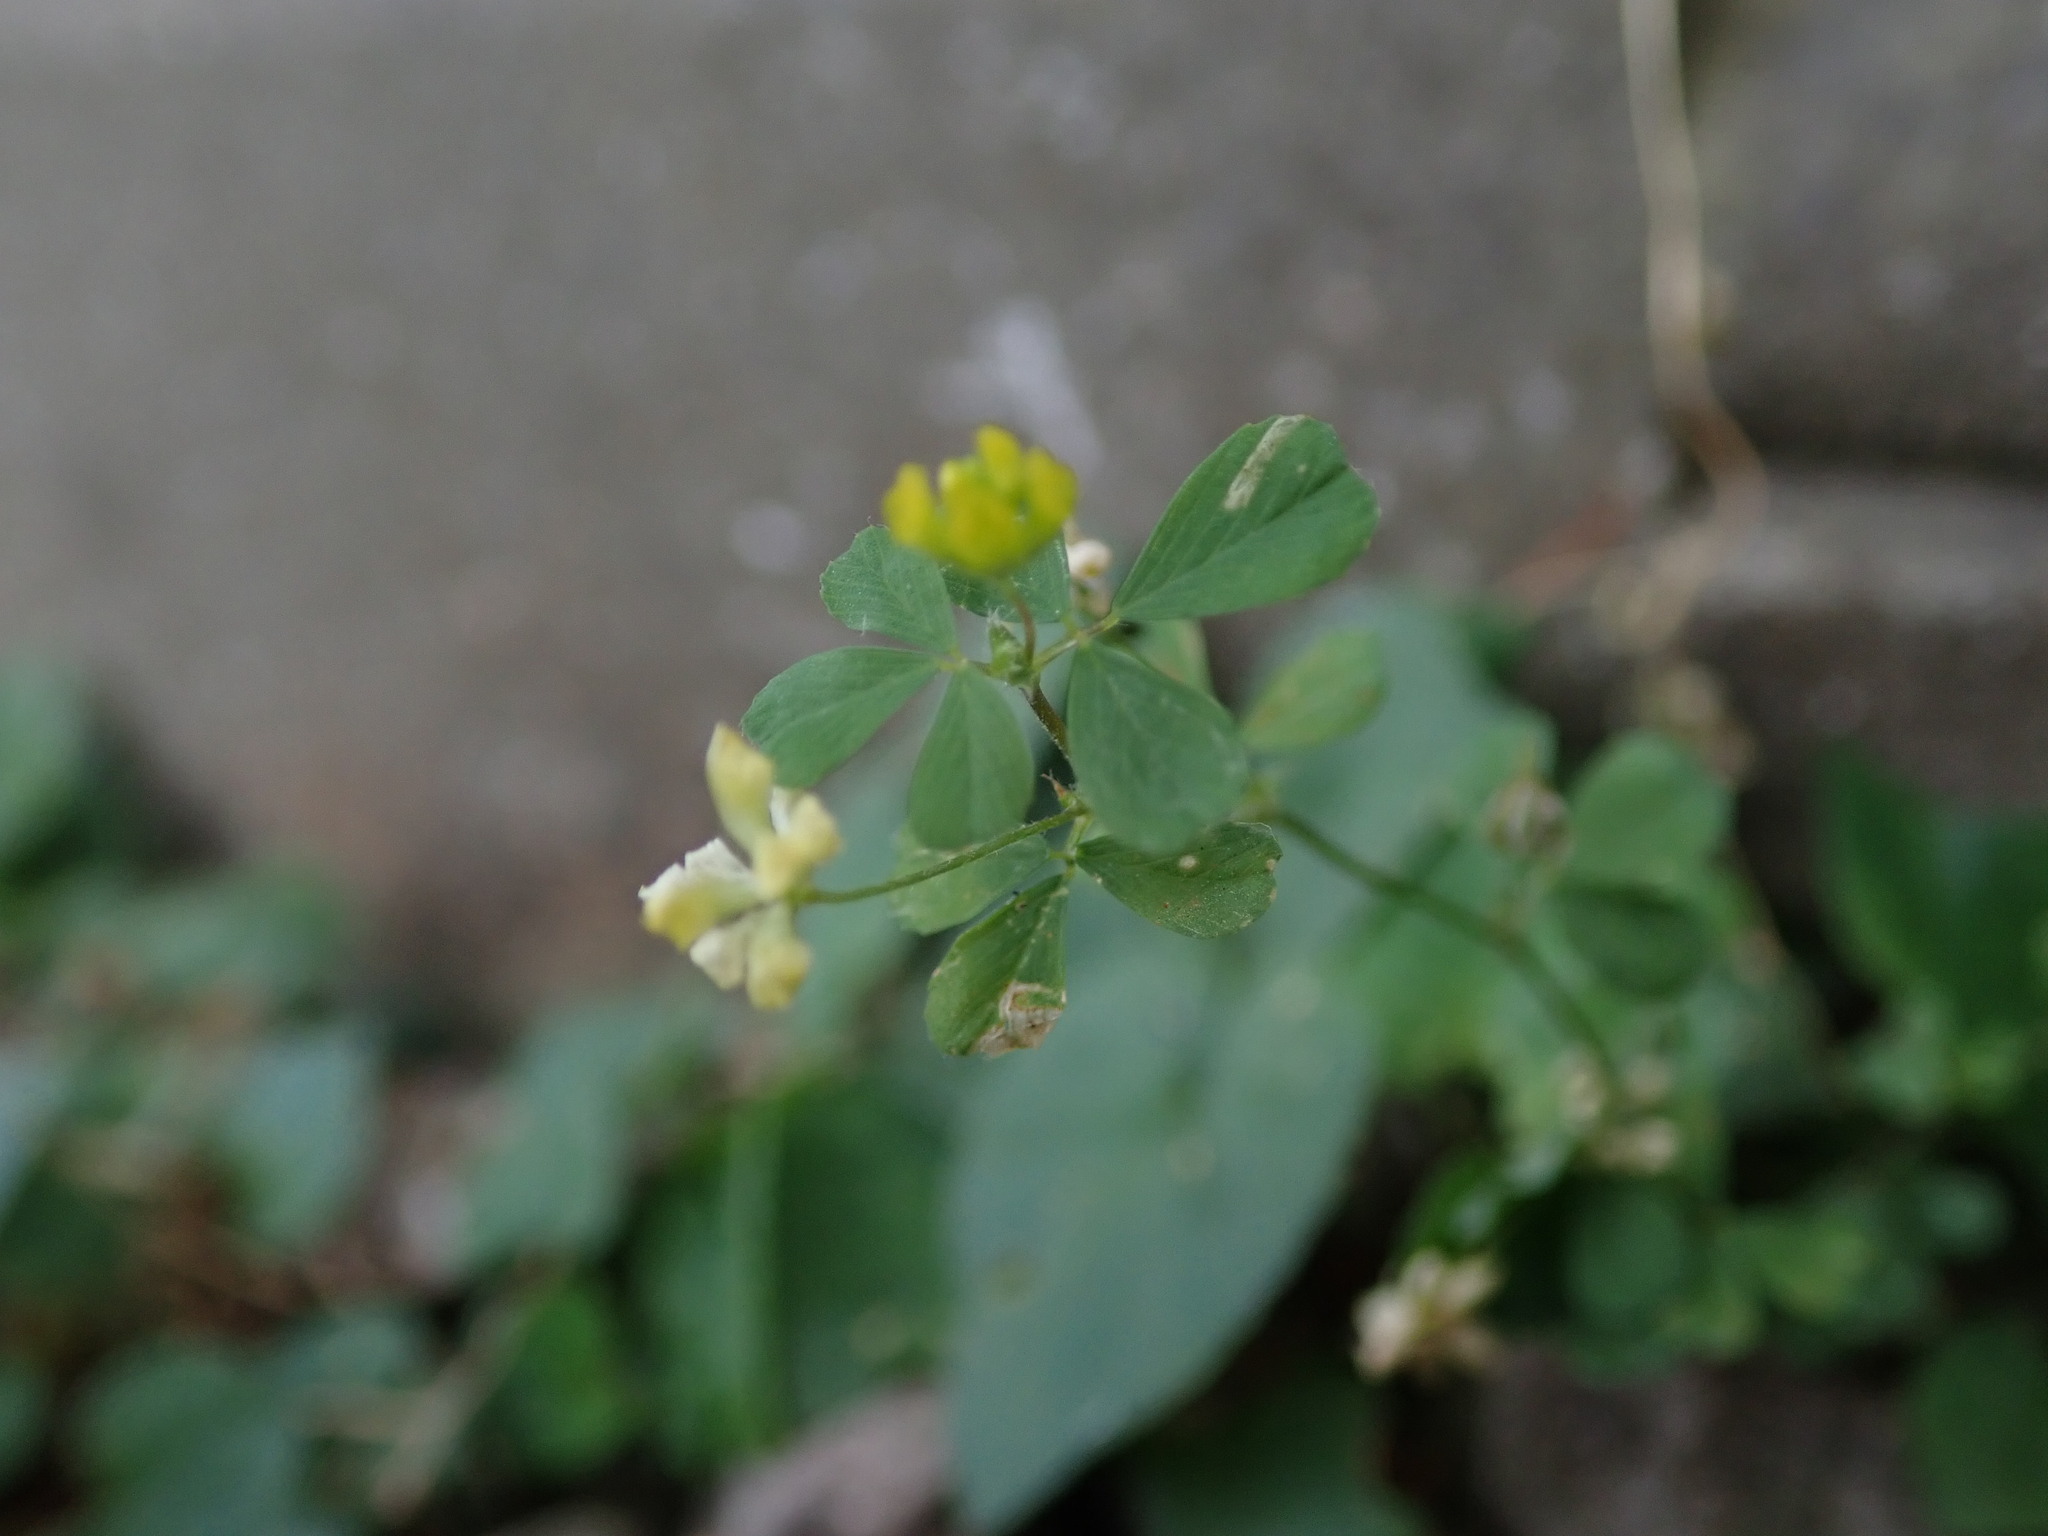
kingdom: Plantae
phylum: Tracheophyta
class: Magnoliopsida
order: Fabales
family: Fabaceae
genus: Trifolium
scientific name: Trifolium dubium
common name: Suckling clover
